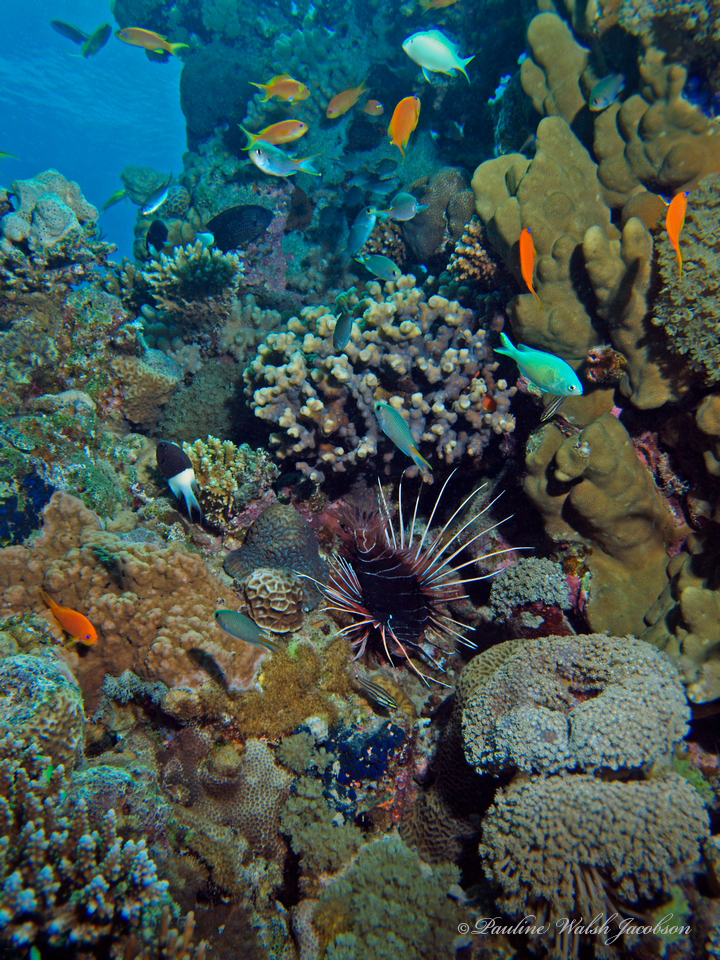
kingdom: Animalia
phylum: Chordata
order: Scorpaeniformes
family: Scorpaenidae
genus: Pterois
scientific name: Pterois cincta
